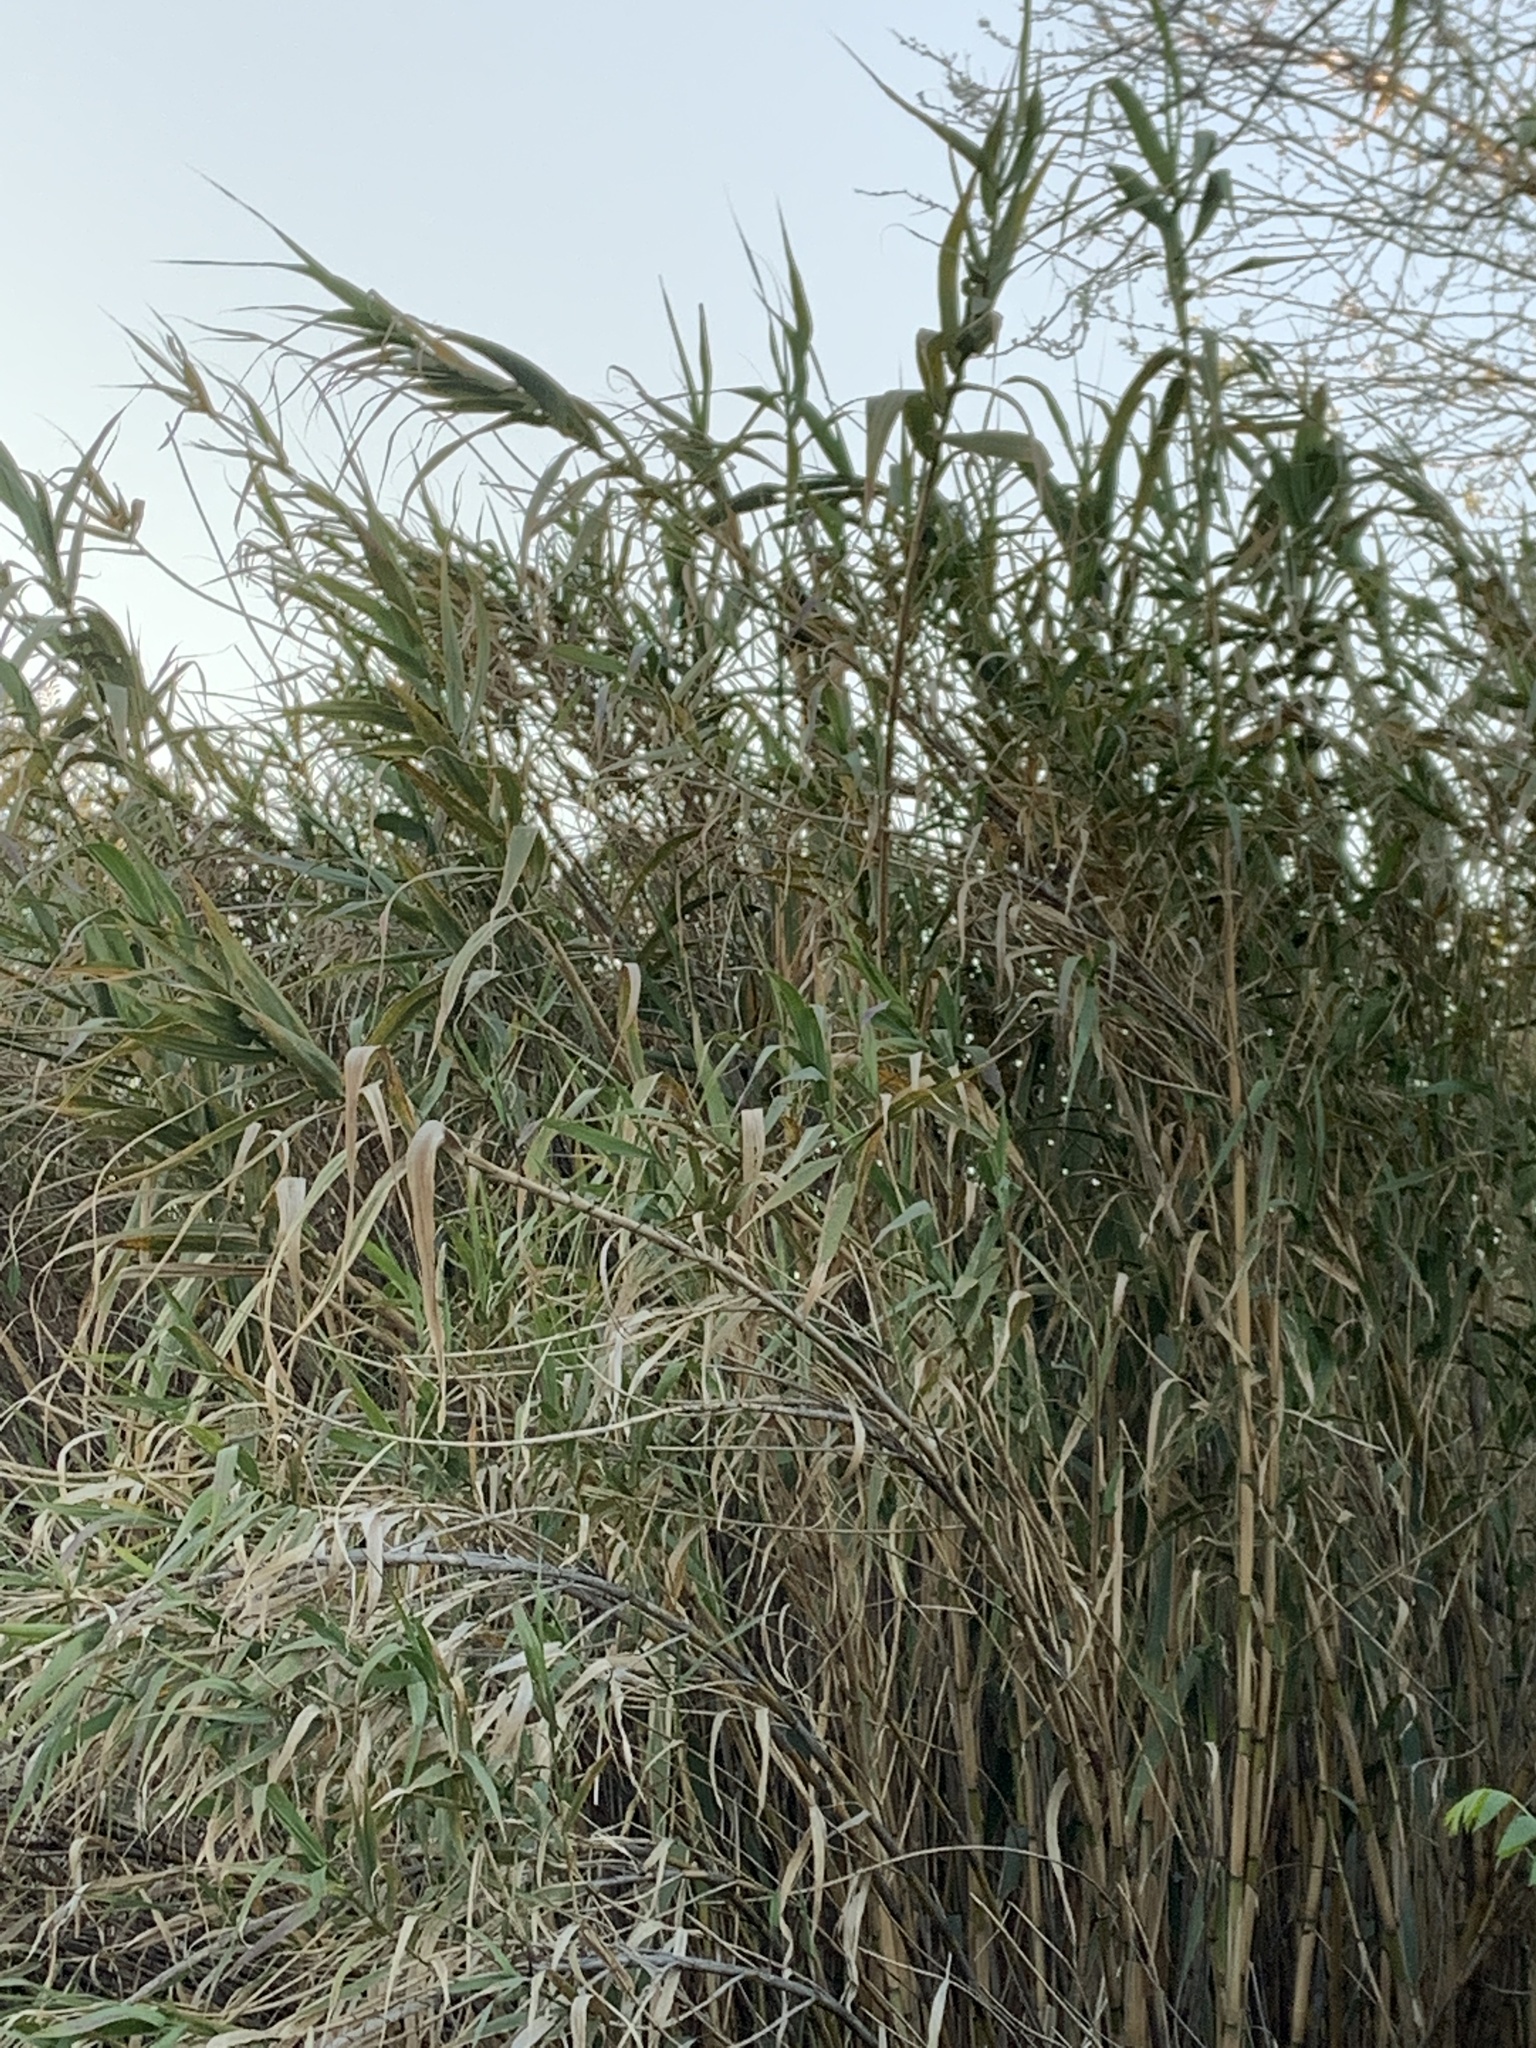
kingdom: Plantae
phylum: Tracheophyta
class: Liliopsida
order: Poales
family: Poaceae
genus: Arundo
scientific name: Arundo donax
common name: Giant reed
